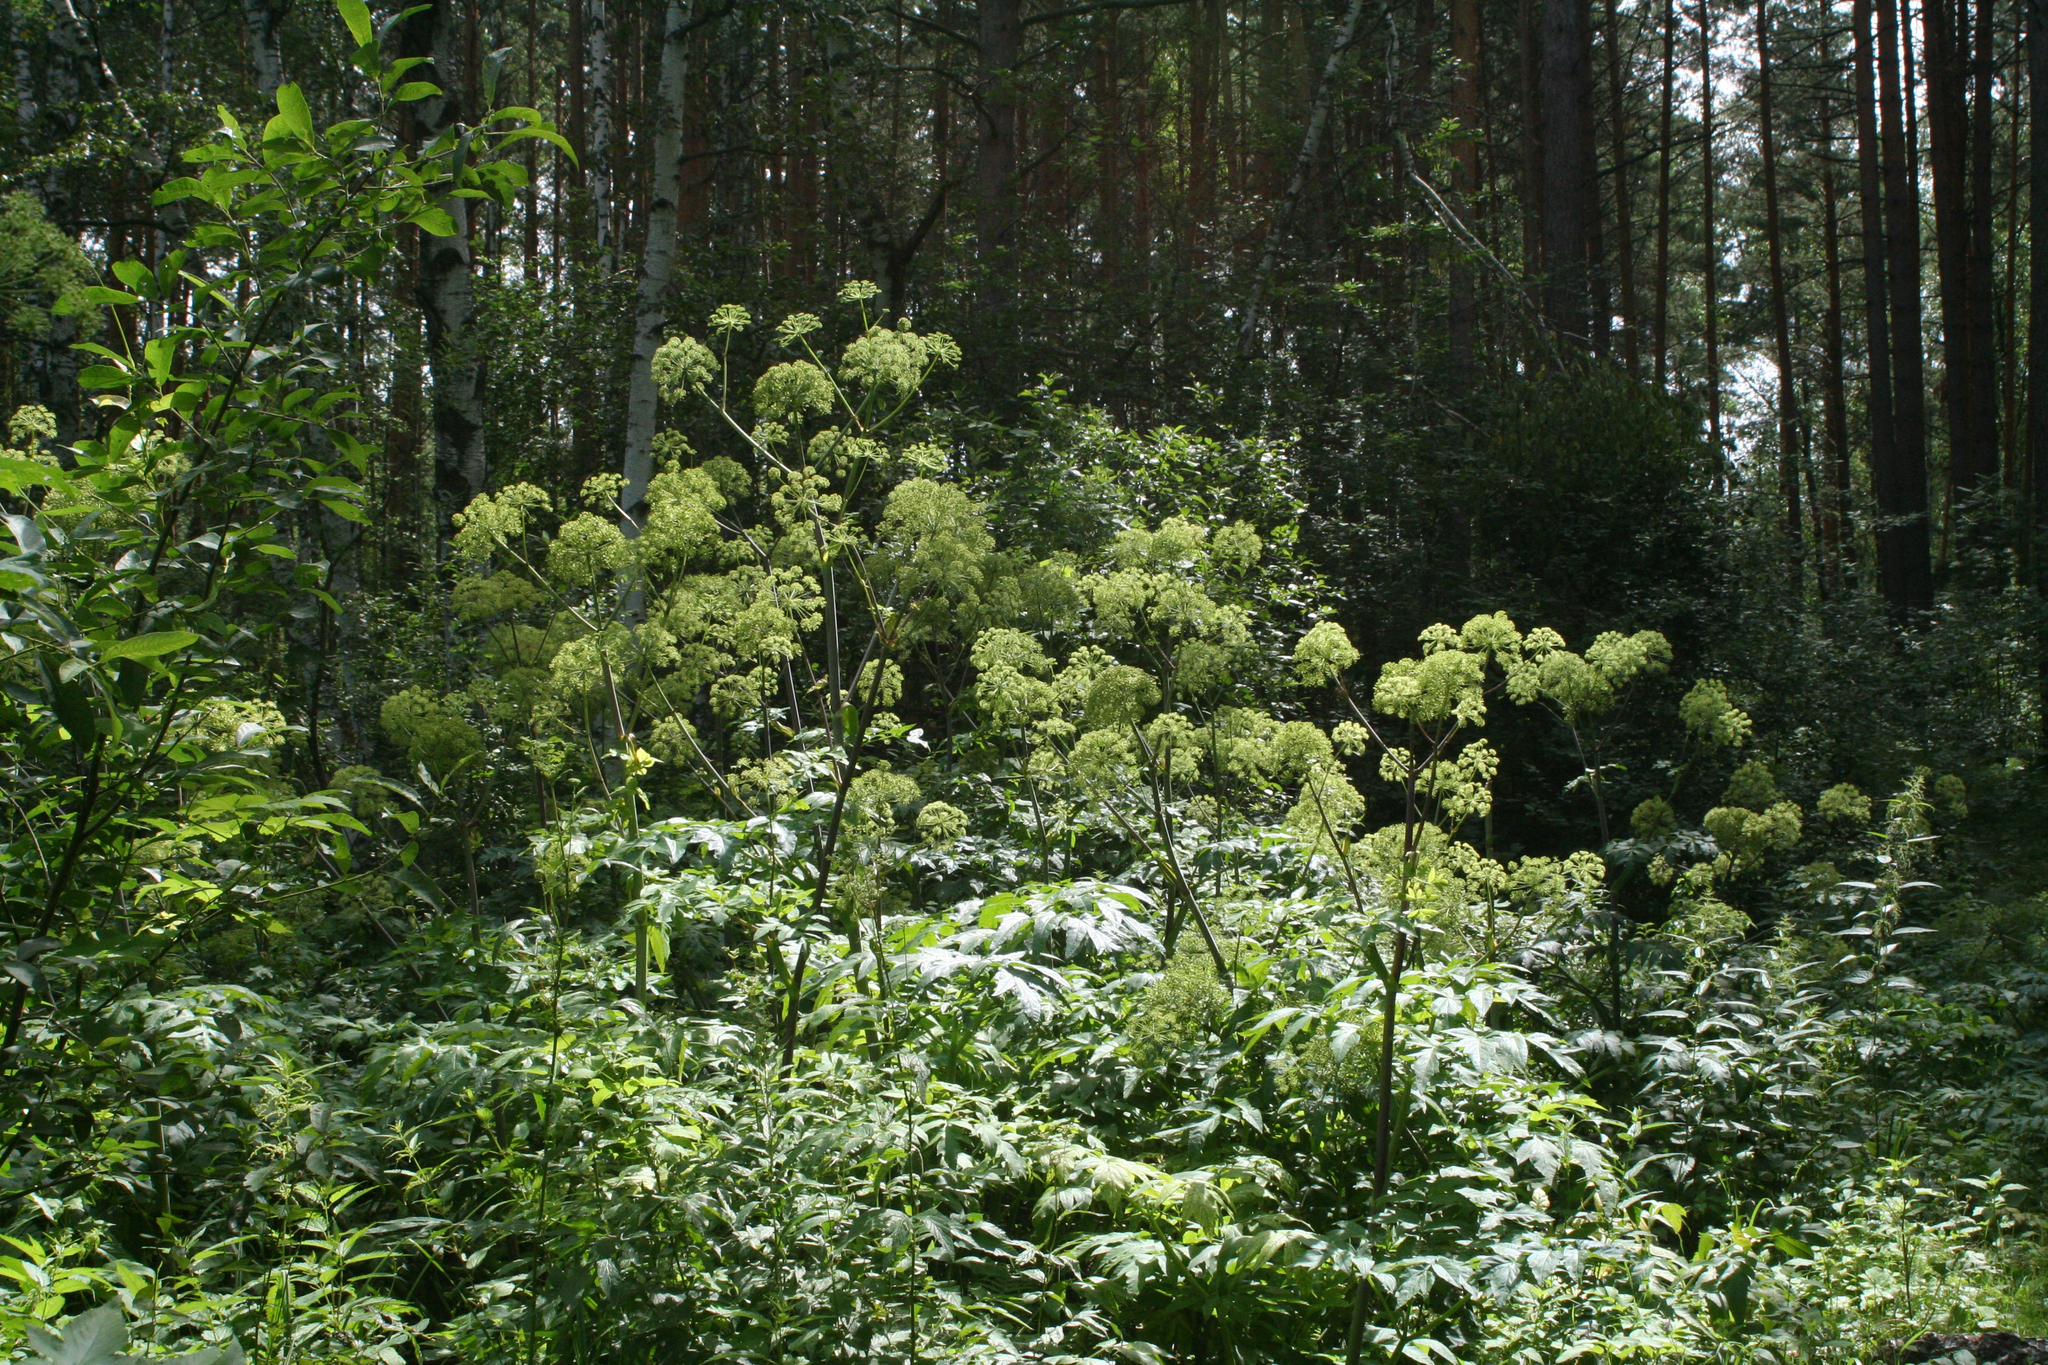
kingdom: Plantae
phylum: Tracheophyta
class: Magnoliopsida
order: Apiales
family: Apiaceae
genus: Angelica
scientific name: Angelica decurrens
